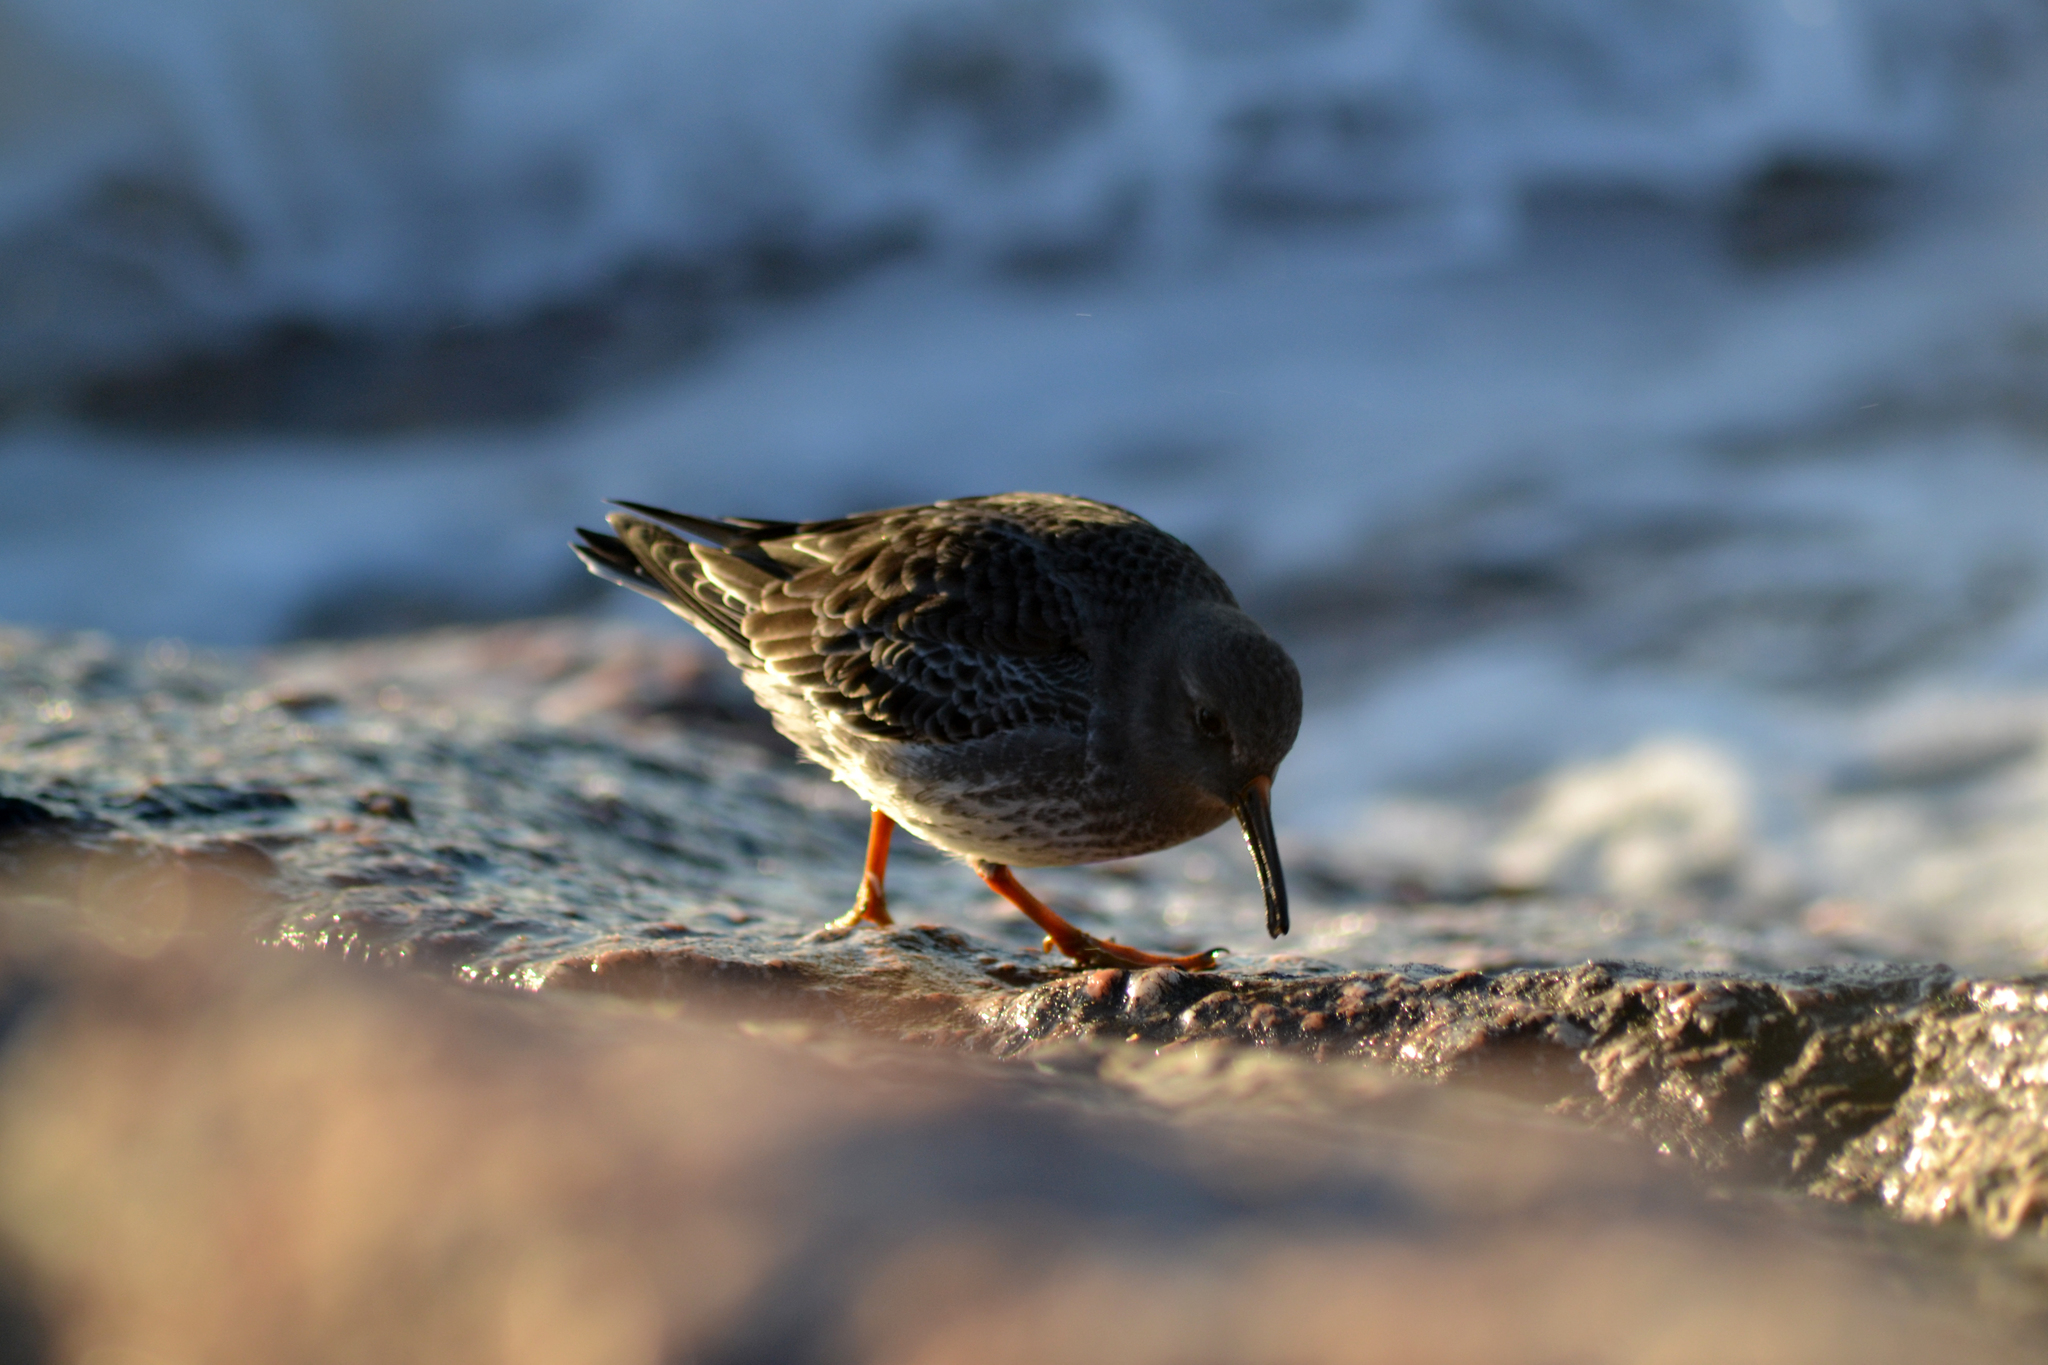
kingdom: Animalia
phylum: Chordata
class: Aves
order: Charadriiformes
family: Scolopacidae
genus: Calidris
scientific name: Calidris maritima
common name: Purple sandpiper
